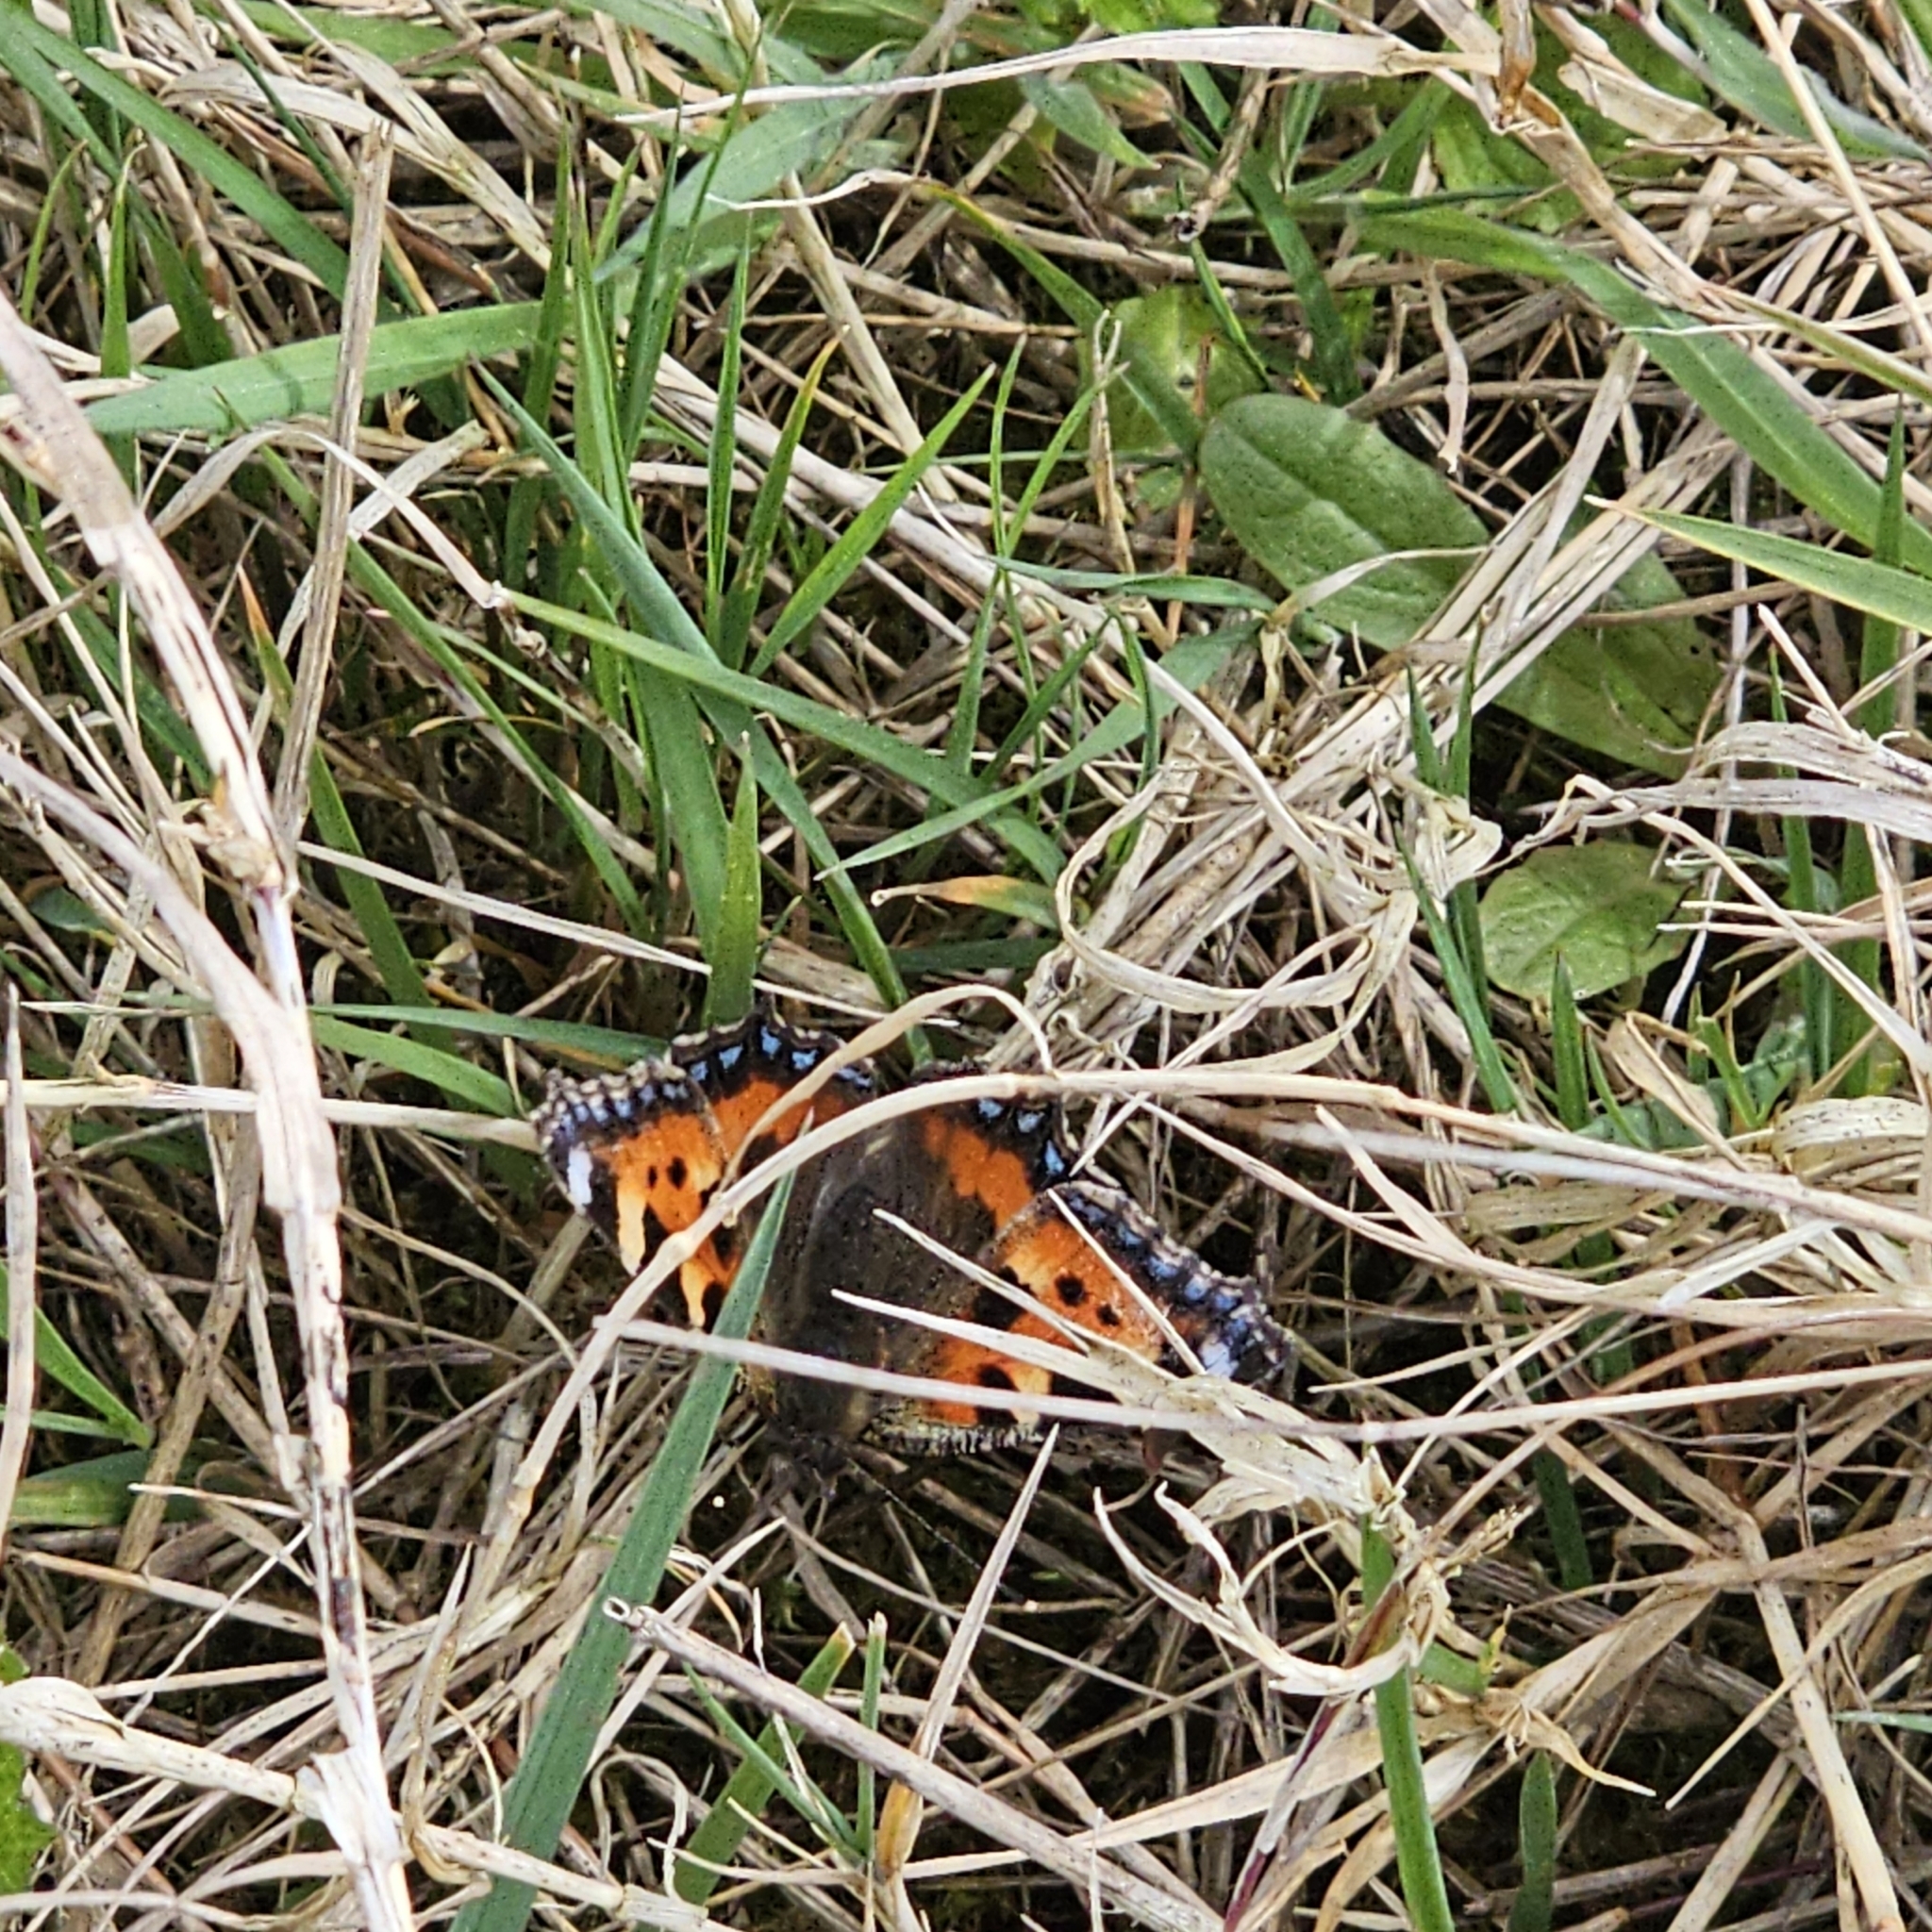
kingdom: Animalia
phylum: Arthropoda
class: Insecta
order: Lepidoptera
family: Nymphalidae
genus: Aglais
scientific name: Aglais urticae
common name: Small tortoiseshell
